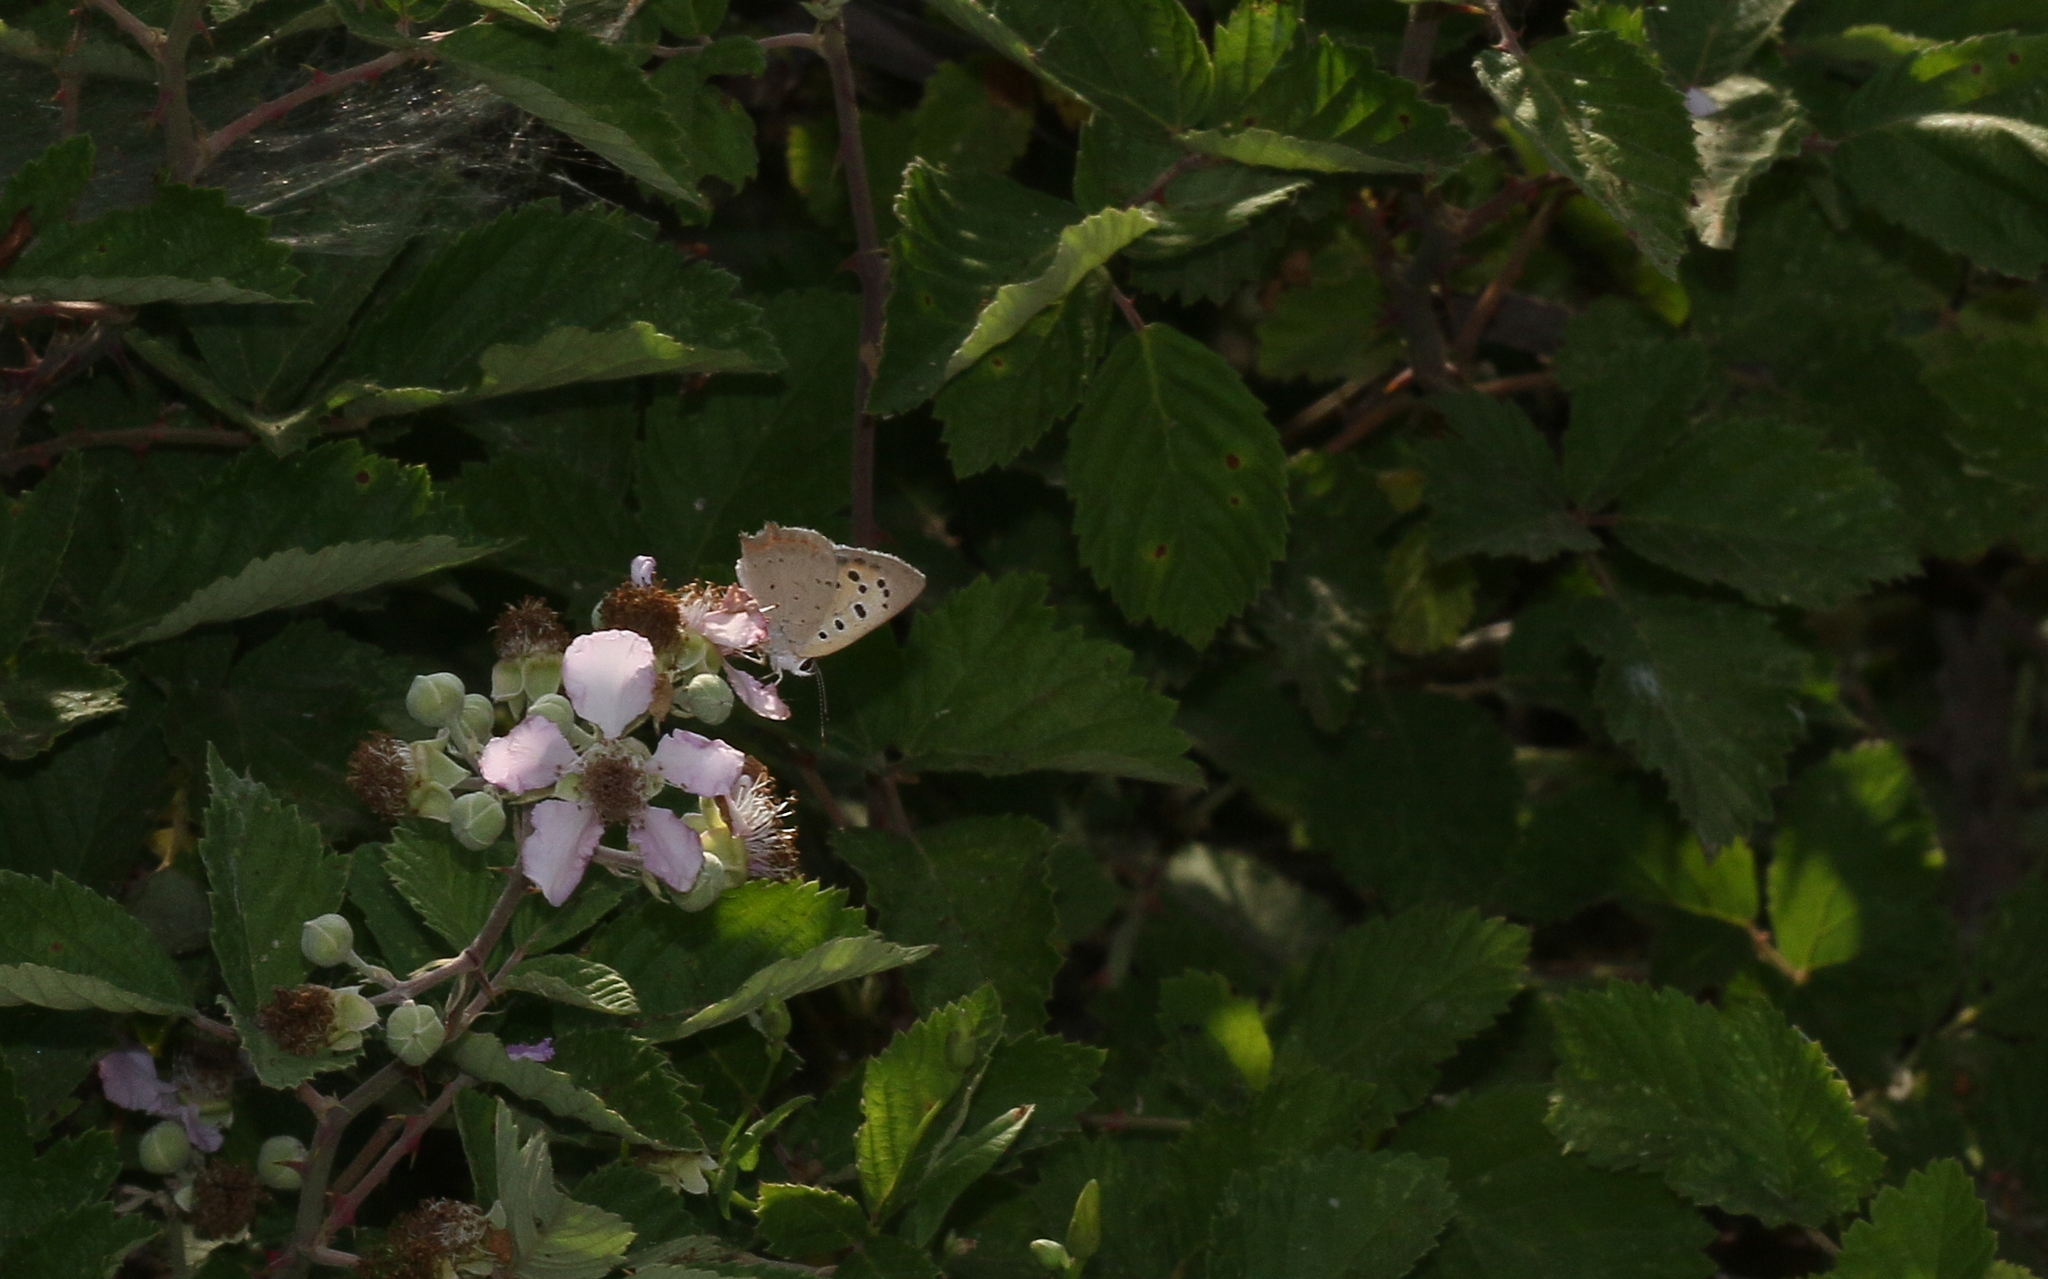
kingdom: Animalia
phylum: Arthropoda
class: Insecta
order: Lepidoptera
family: Lycaenidae
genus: Lycaena
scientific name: Lycaena phlaeas
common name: Small copper
